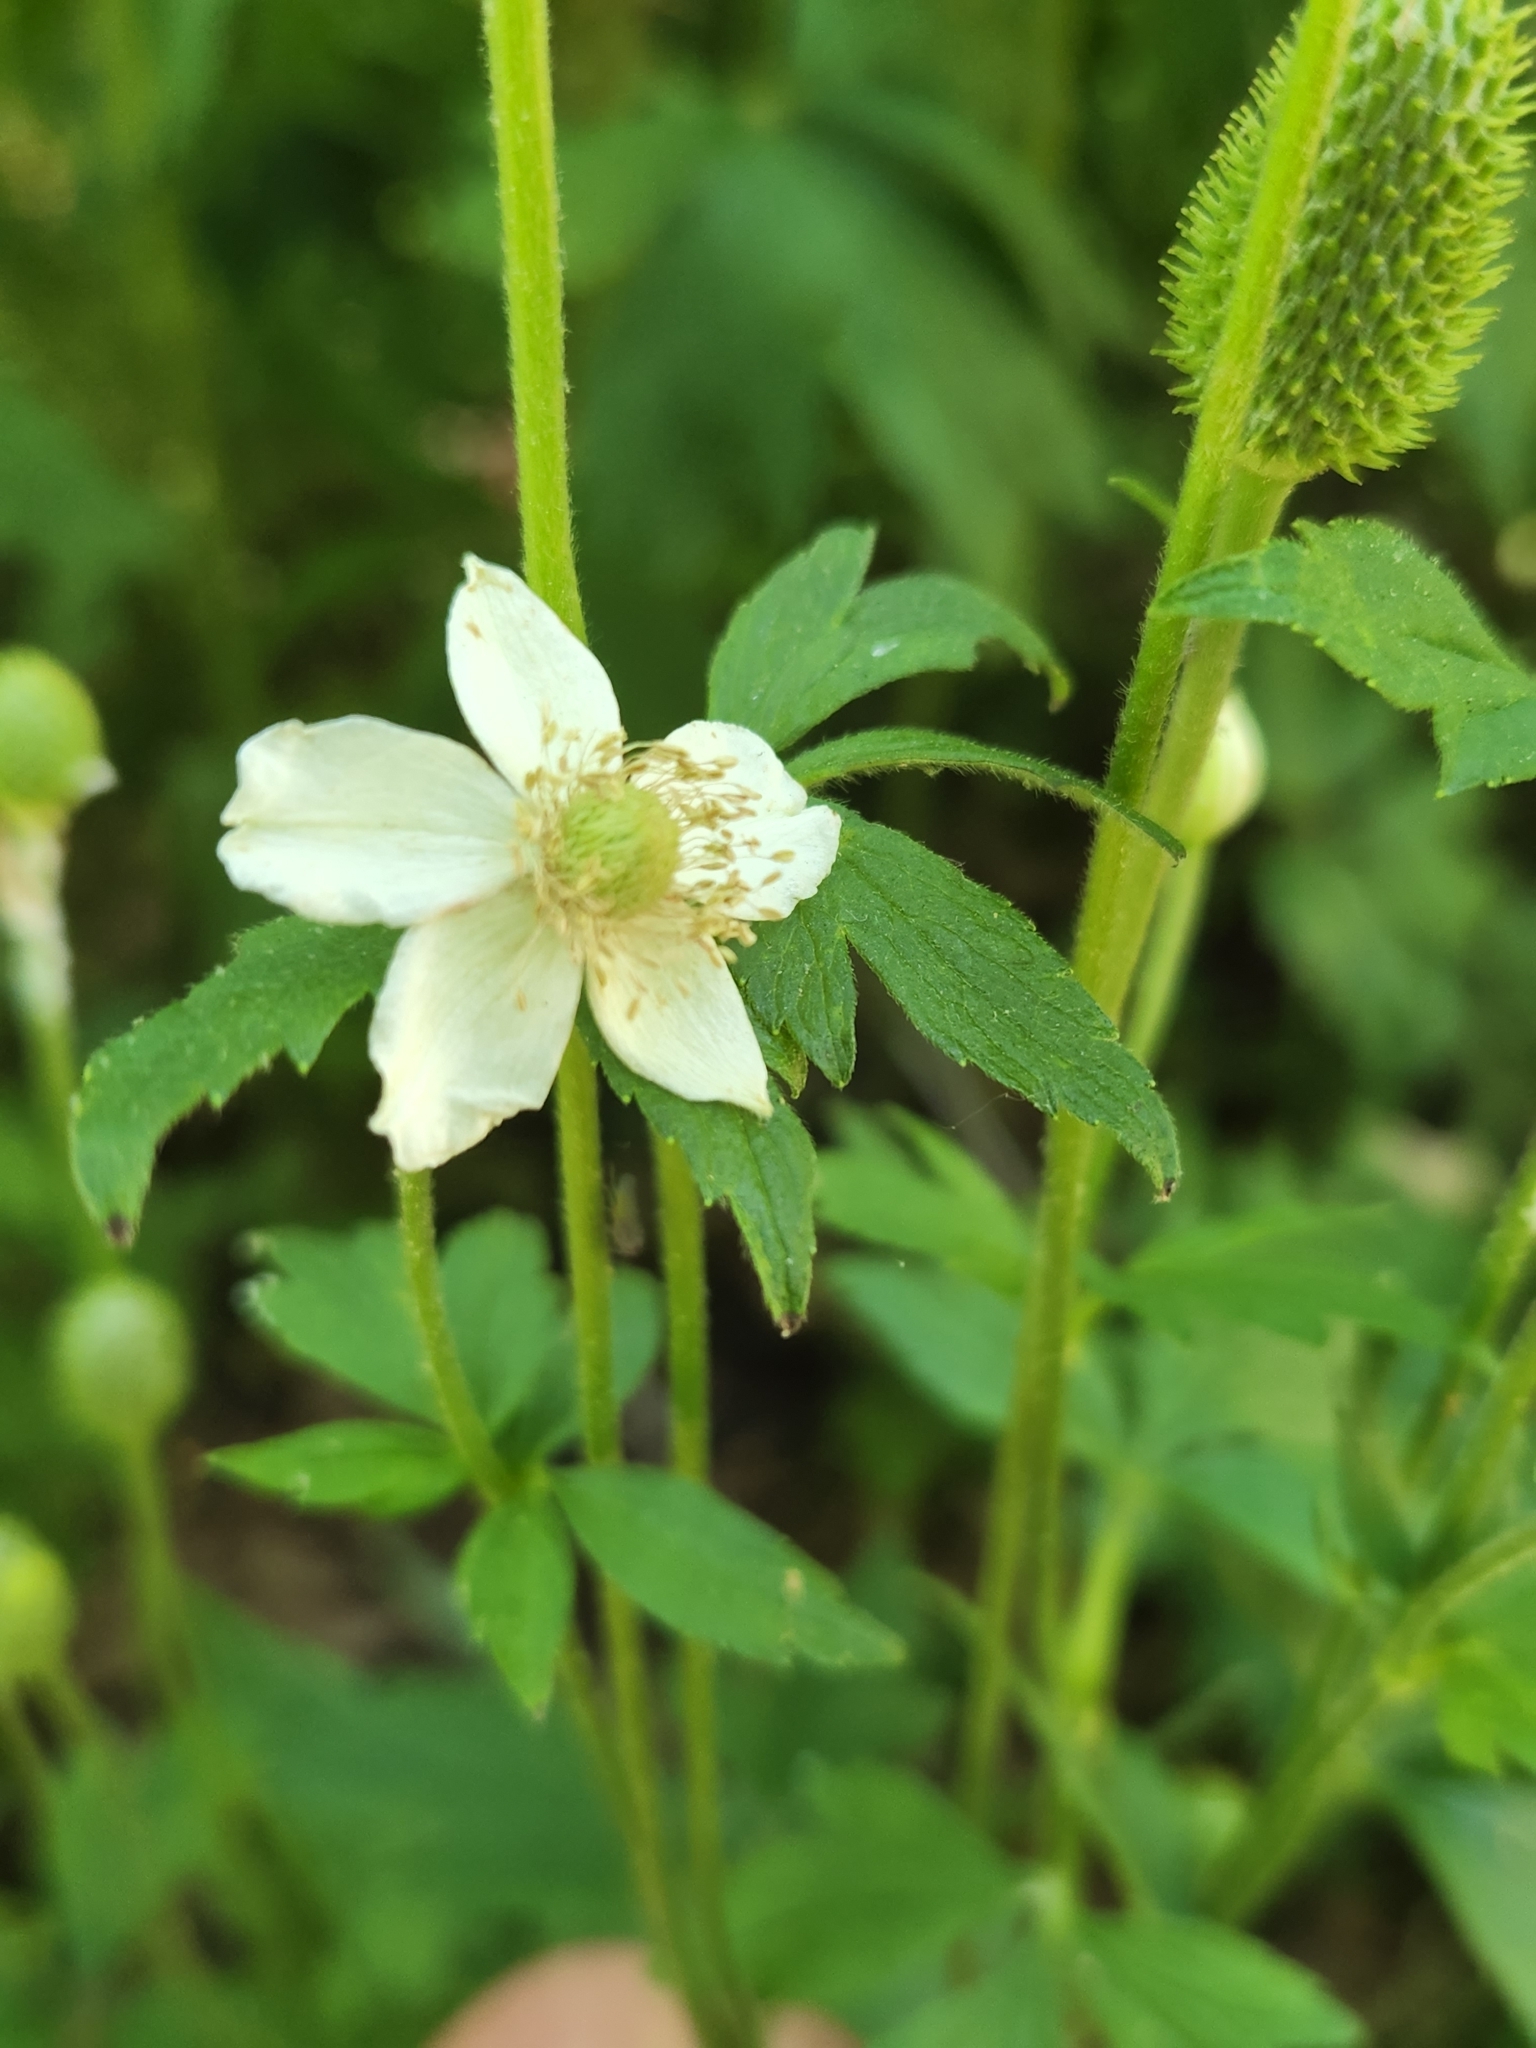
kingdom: Plantae
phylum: Tracheophyta
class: Magnoliopsida
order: Ranunculales
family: Ranunculaceae
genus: Anemone
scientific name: Anemone virginiana
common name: Tall anemone
